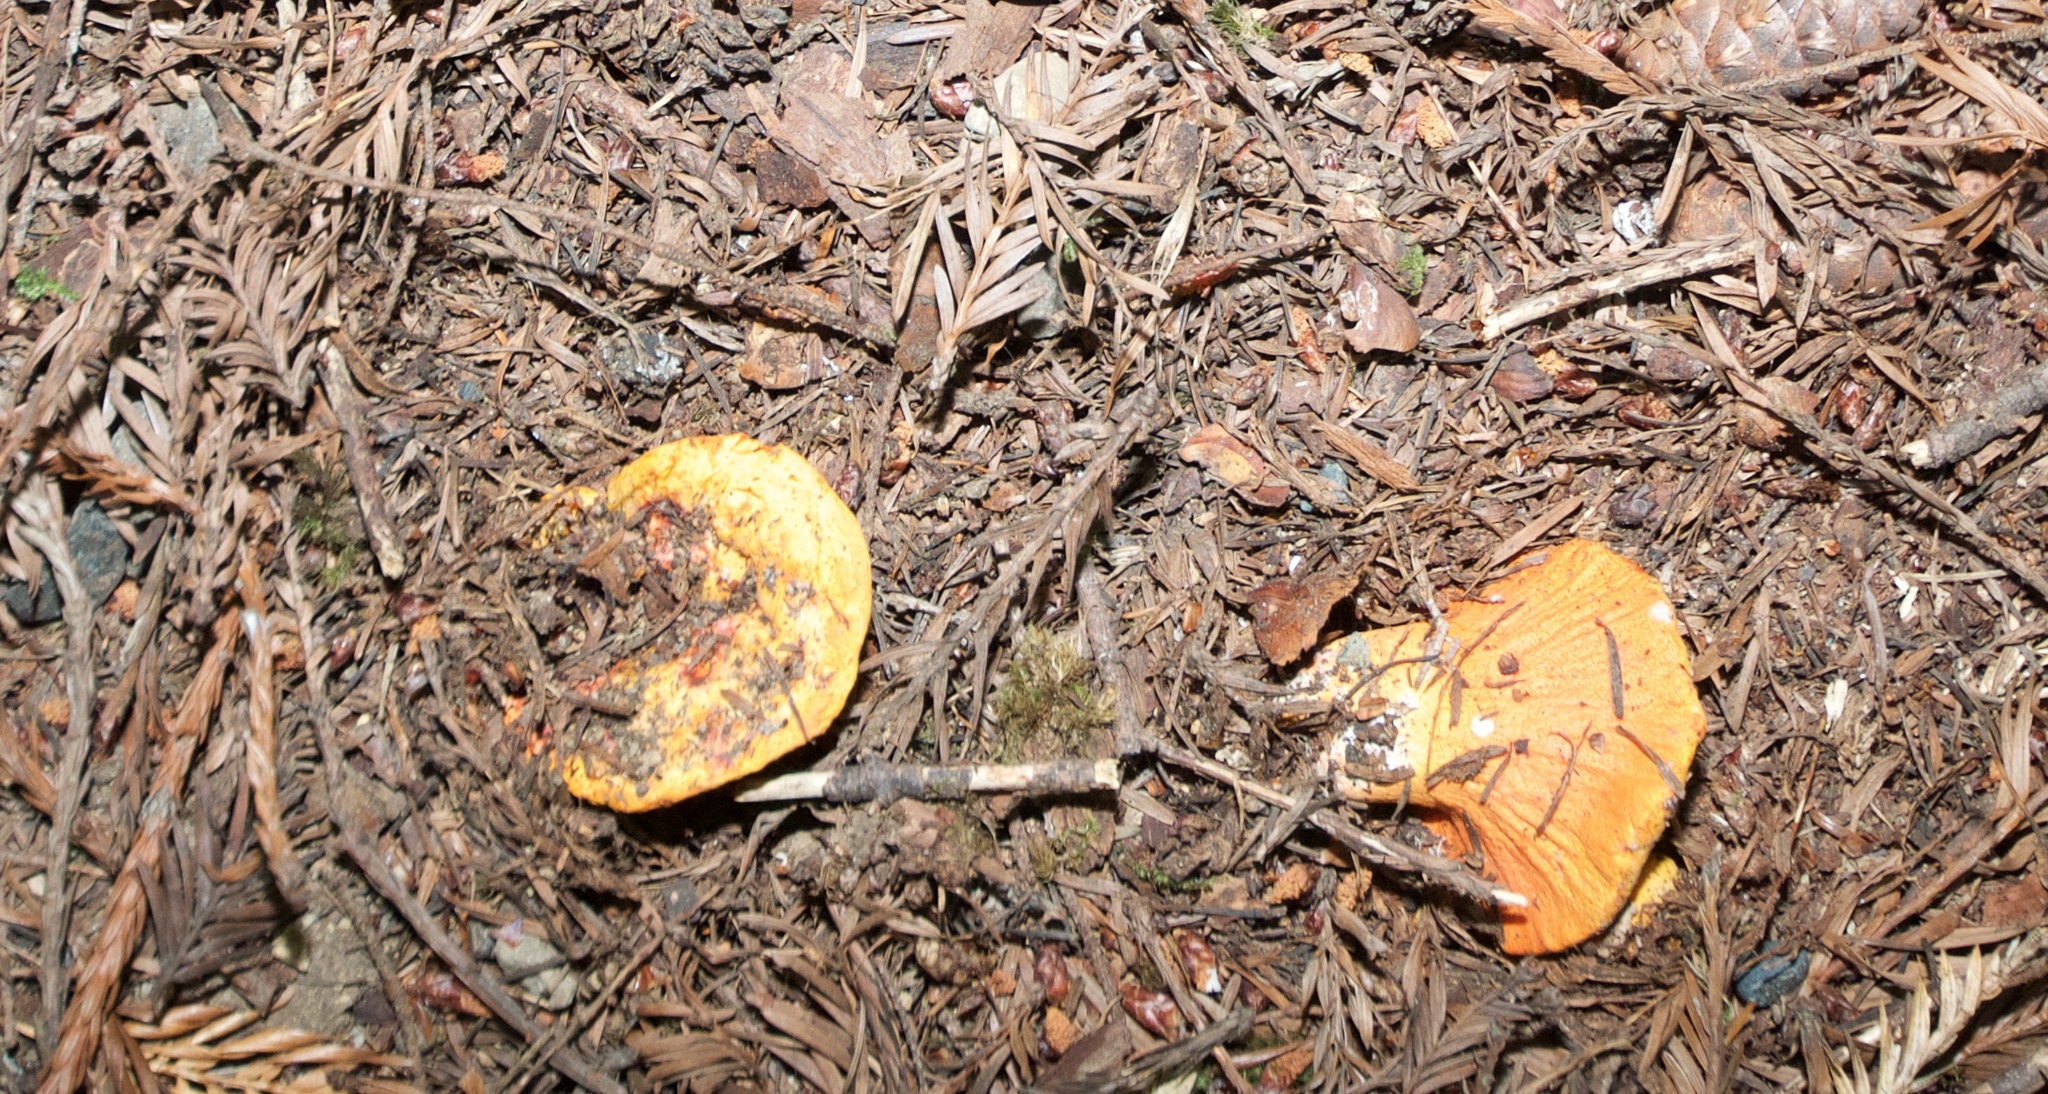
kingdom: Fungi
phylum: Ascomycota
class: Sordariomycetes
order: Hypocreales
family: Hypocreaceae
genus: Hypomyces
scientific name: Hypomyces lactifluorum
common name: Lobster mushroom
